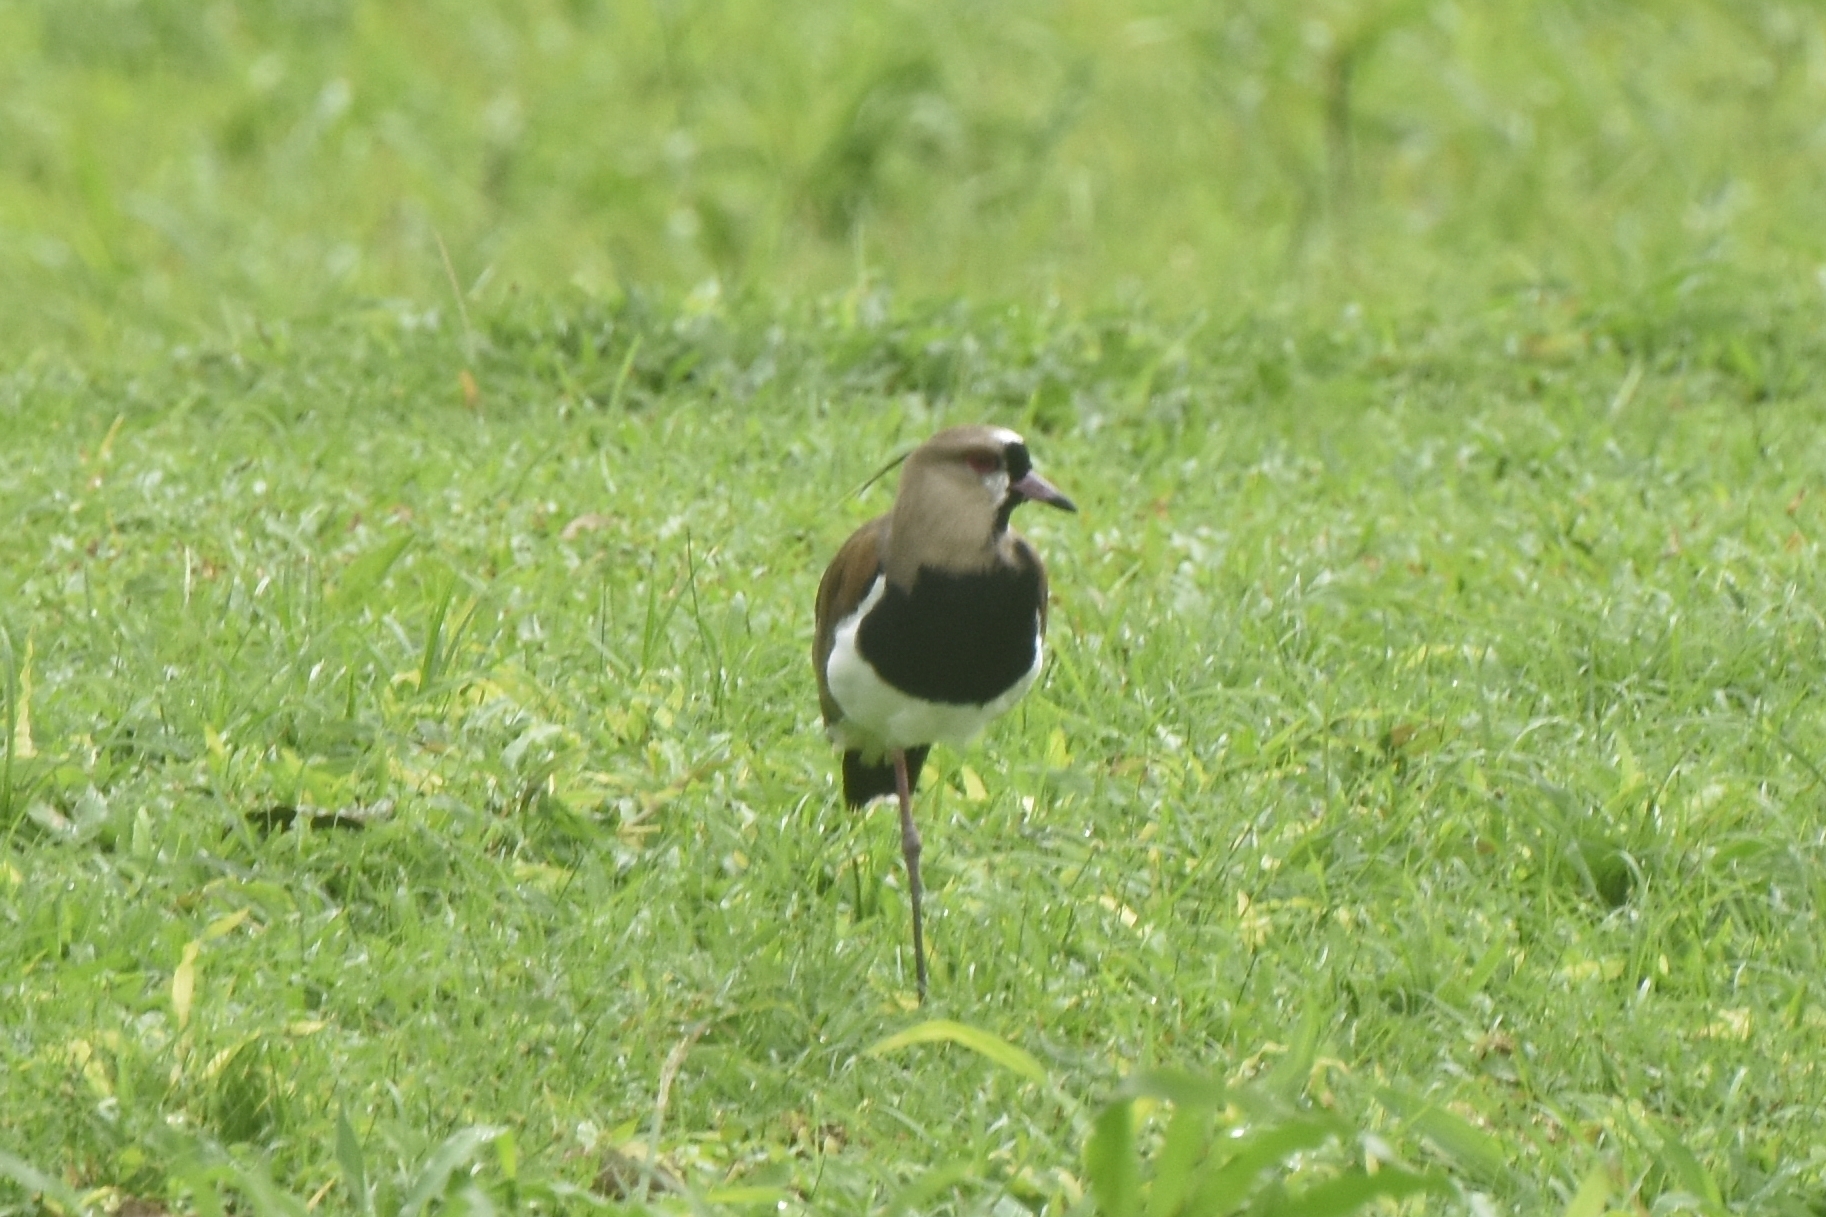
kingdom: Animalia
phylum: Chordata
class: Aves
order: Charadriiformes
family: Charadriidae
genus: Vanellus
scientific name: Vanellus chilensis
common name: Southern lapwing
